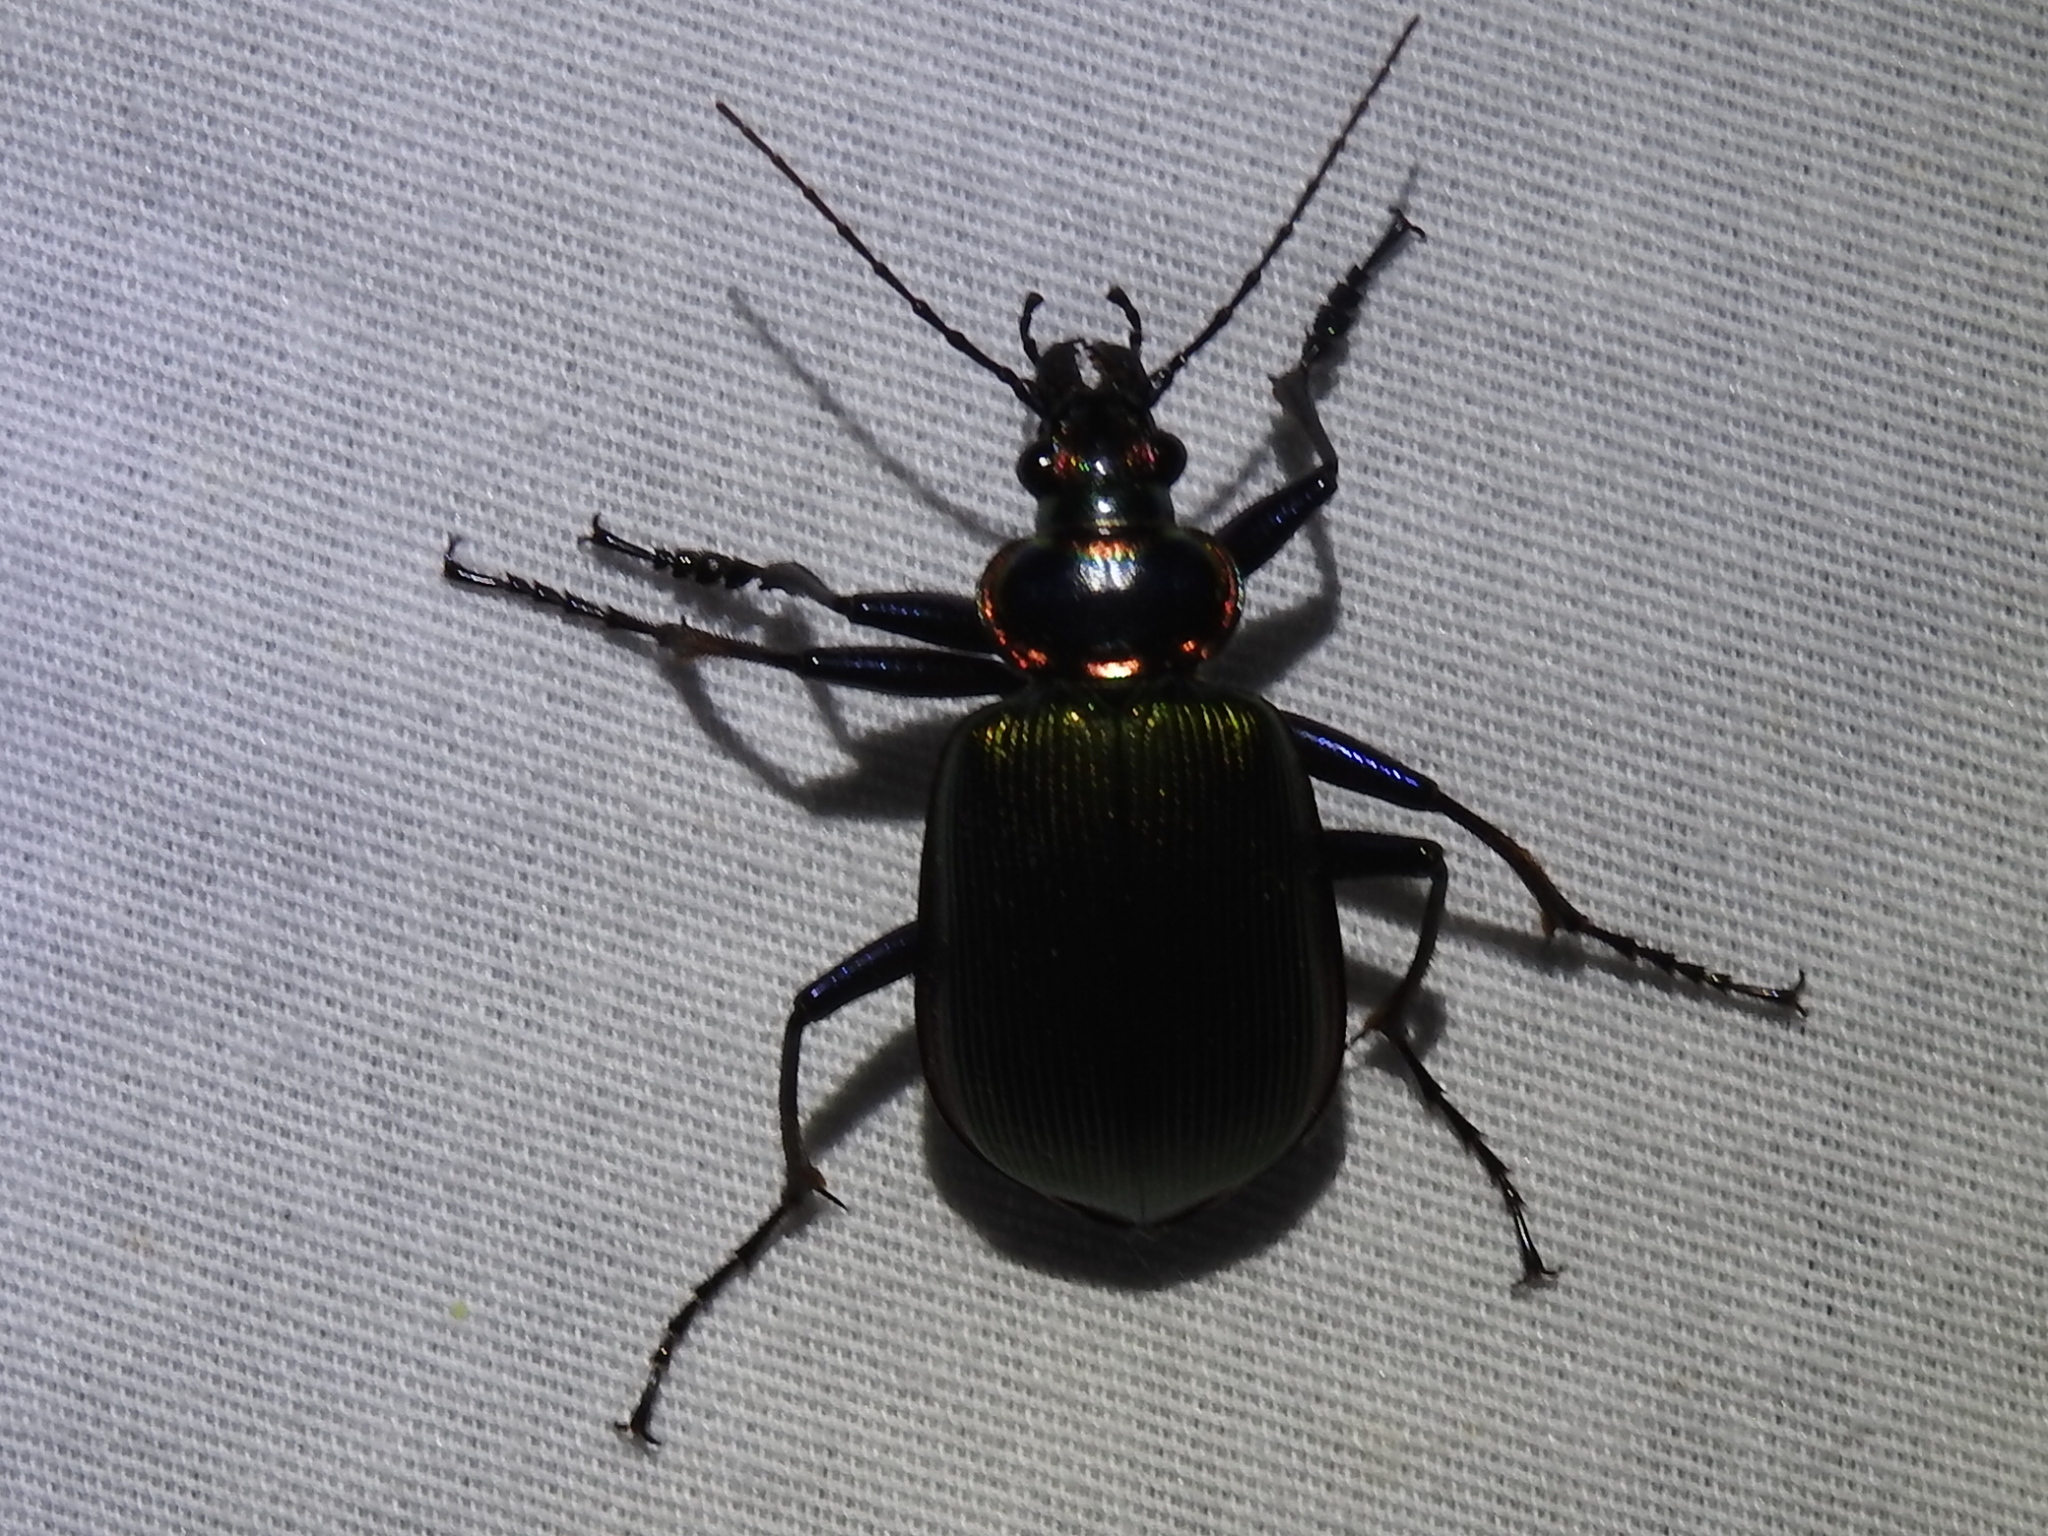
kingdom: Animalia
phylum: Arthropoda
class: Insecta
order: Coleoptera
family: Carabidae
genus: Calosoma
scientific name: Calosoma scrutator
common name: Fiery searcher beetle
